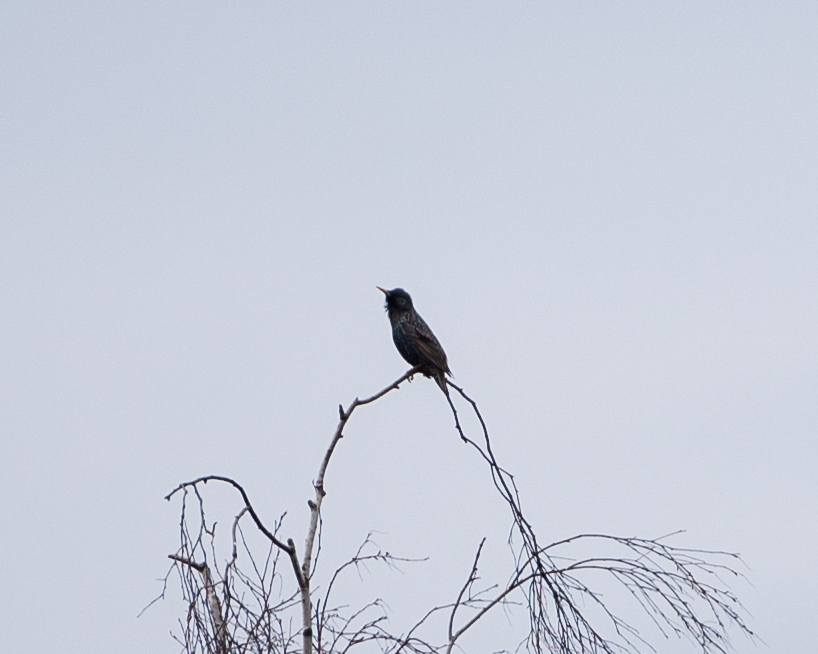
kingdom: Animalia
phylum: Chordata
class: Aves
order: Passeriformes
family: Sturnidae
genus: Sturnus
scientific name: Sturnus vulgaris
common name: Common starling
